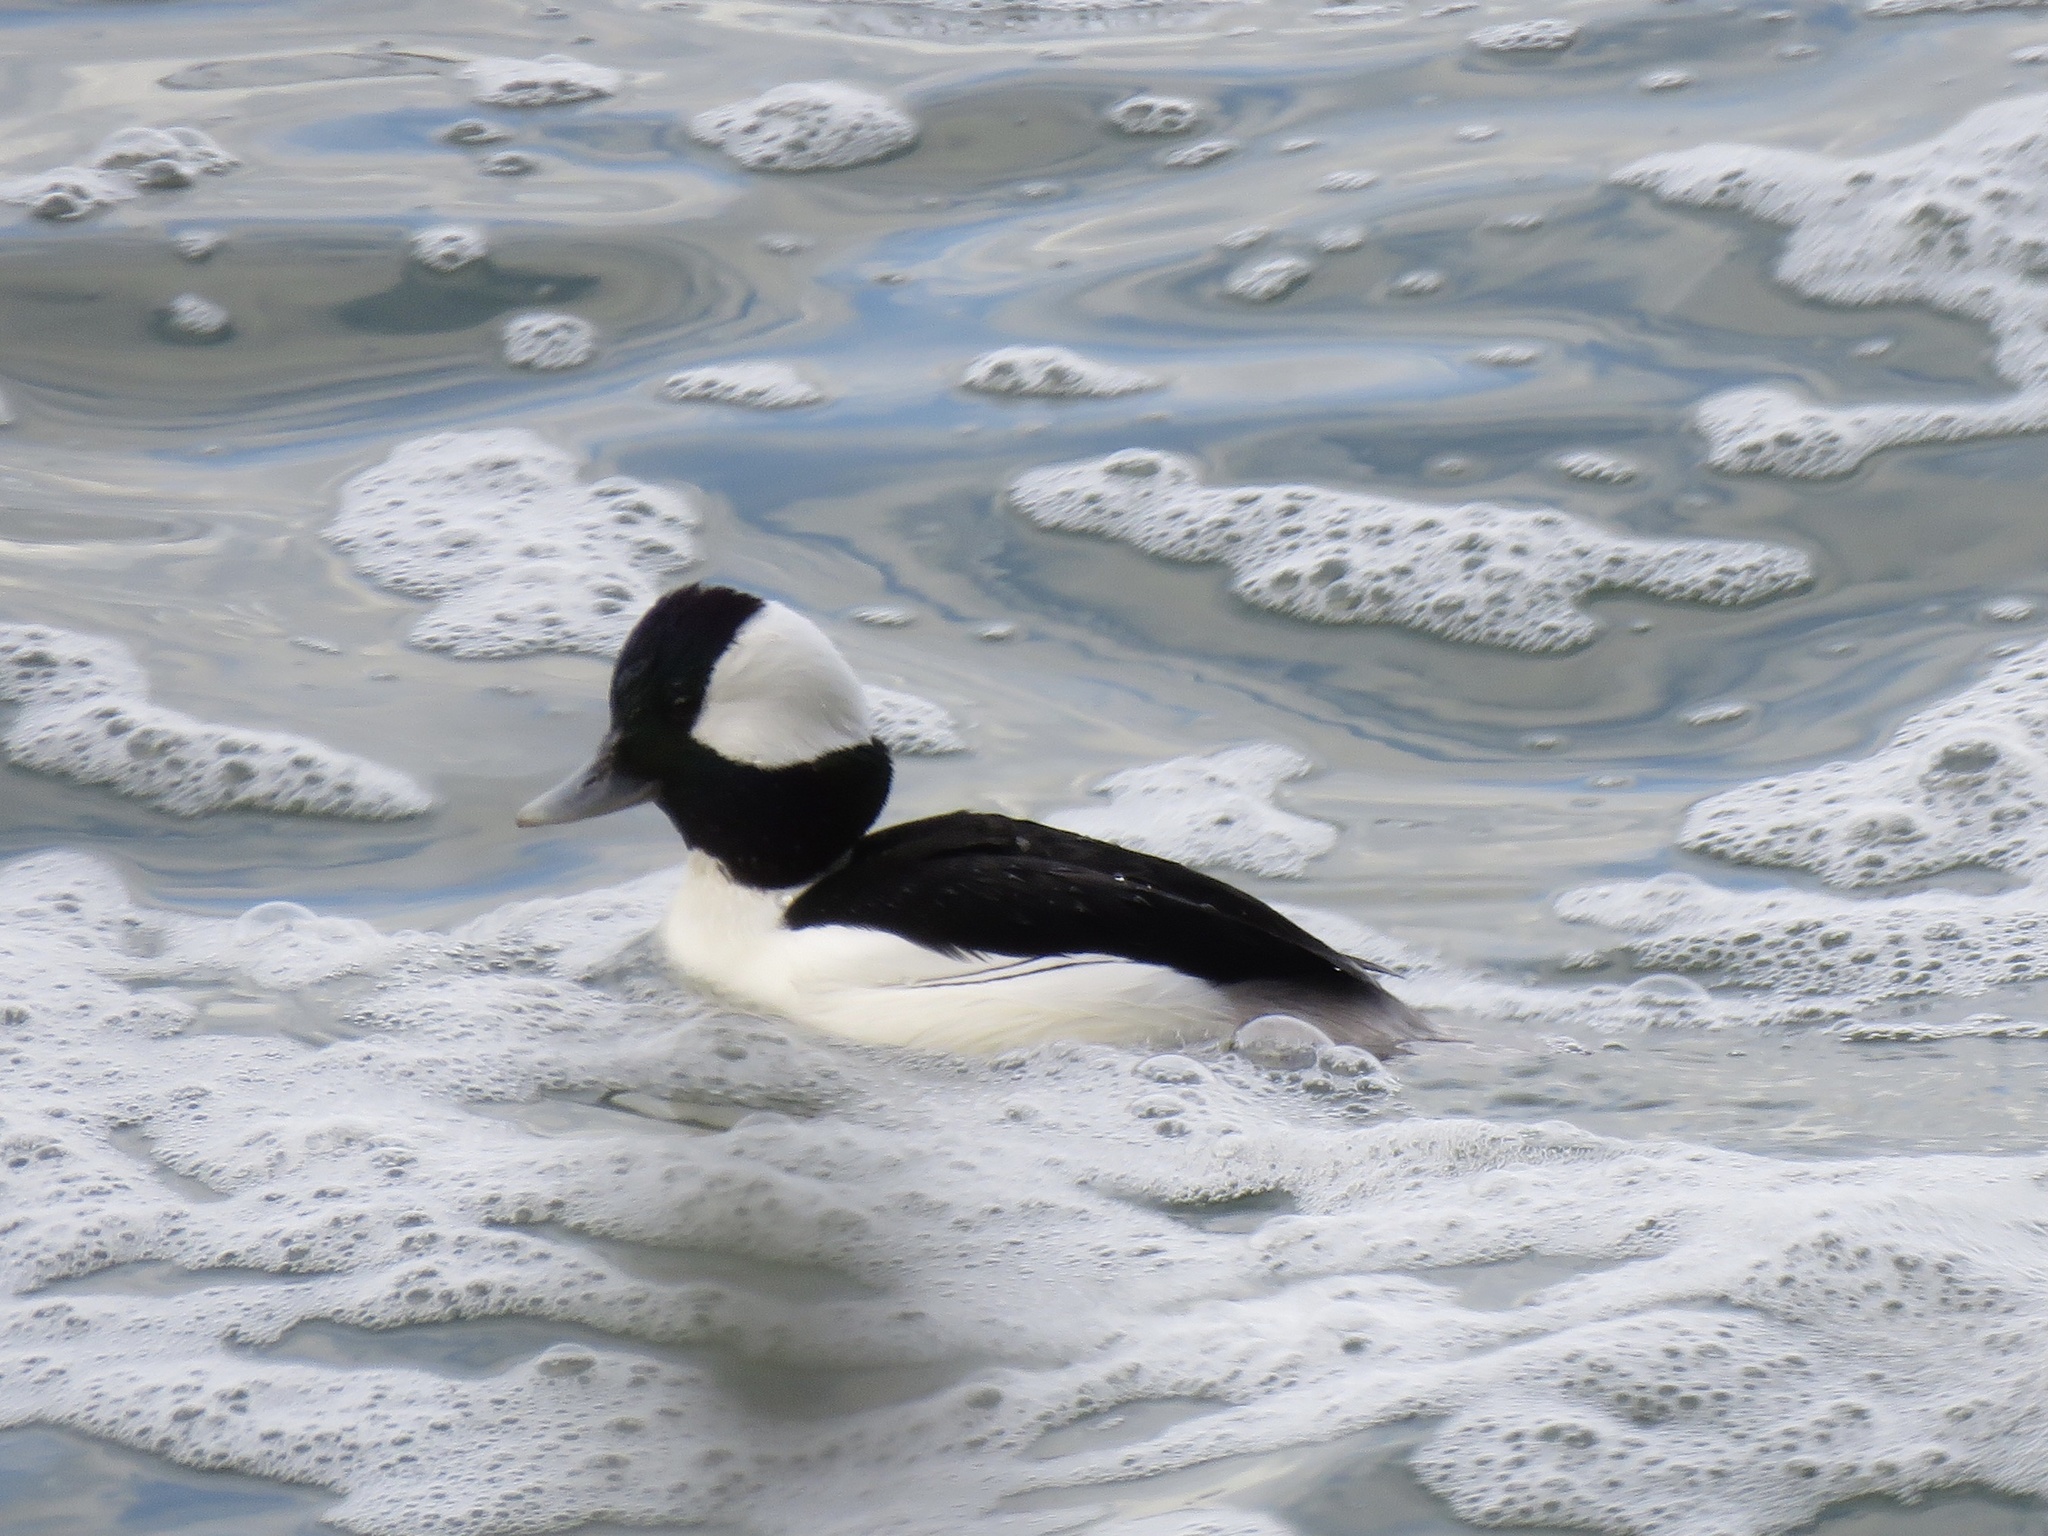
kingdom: Animalia
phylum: Chordata
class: Aves
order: Anseriformes
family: Anatidae
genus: Bucephala
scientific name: Bucephala albeola
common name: Bufflehead
